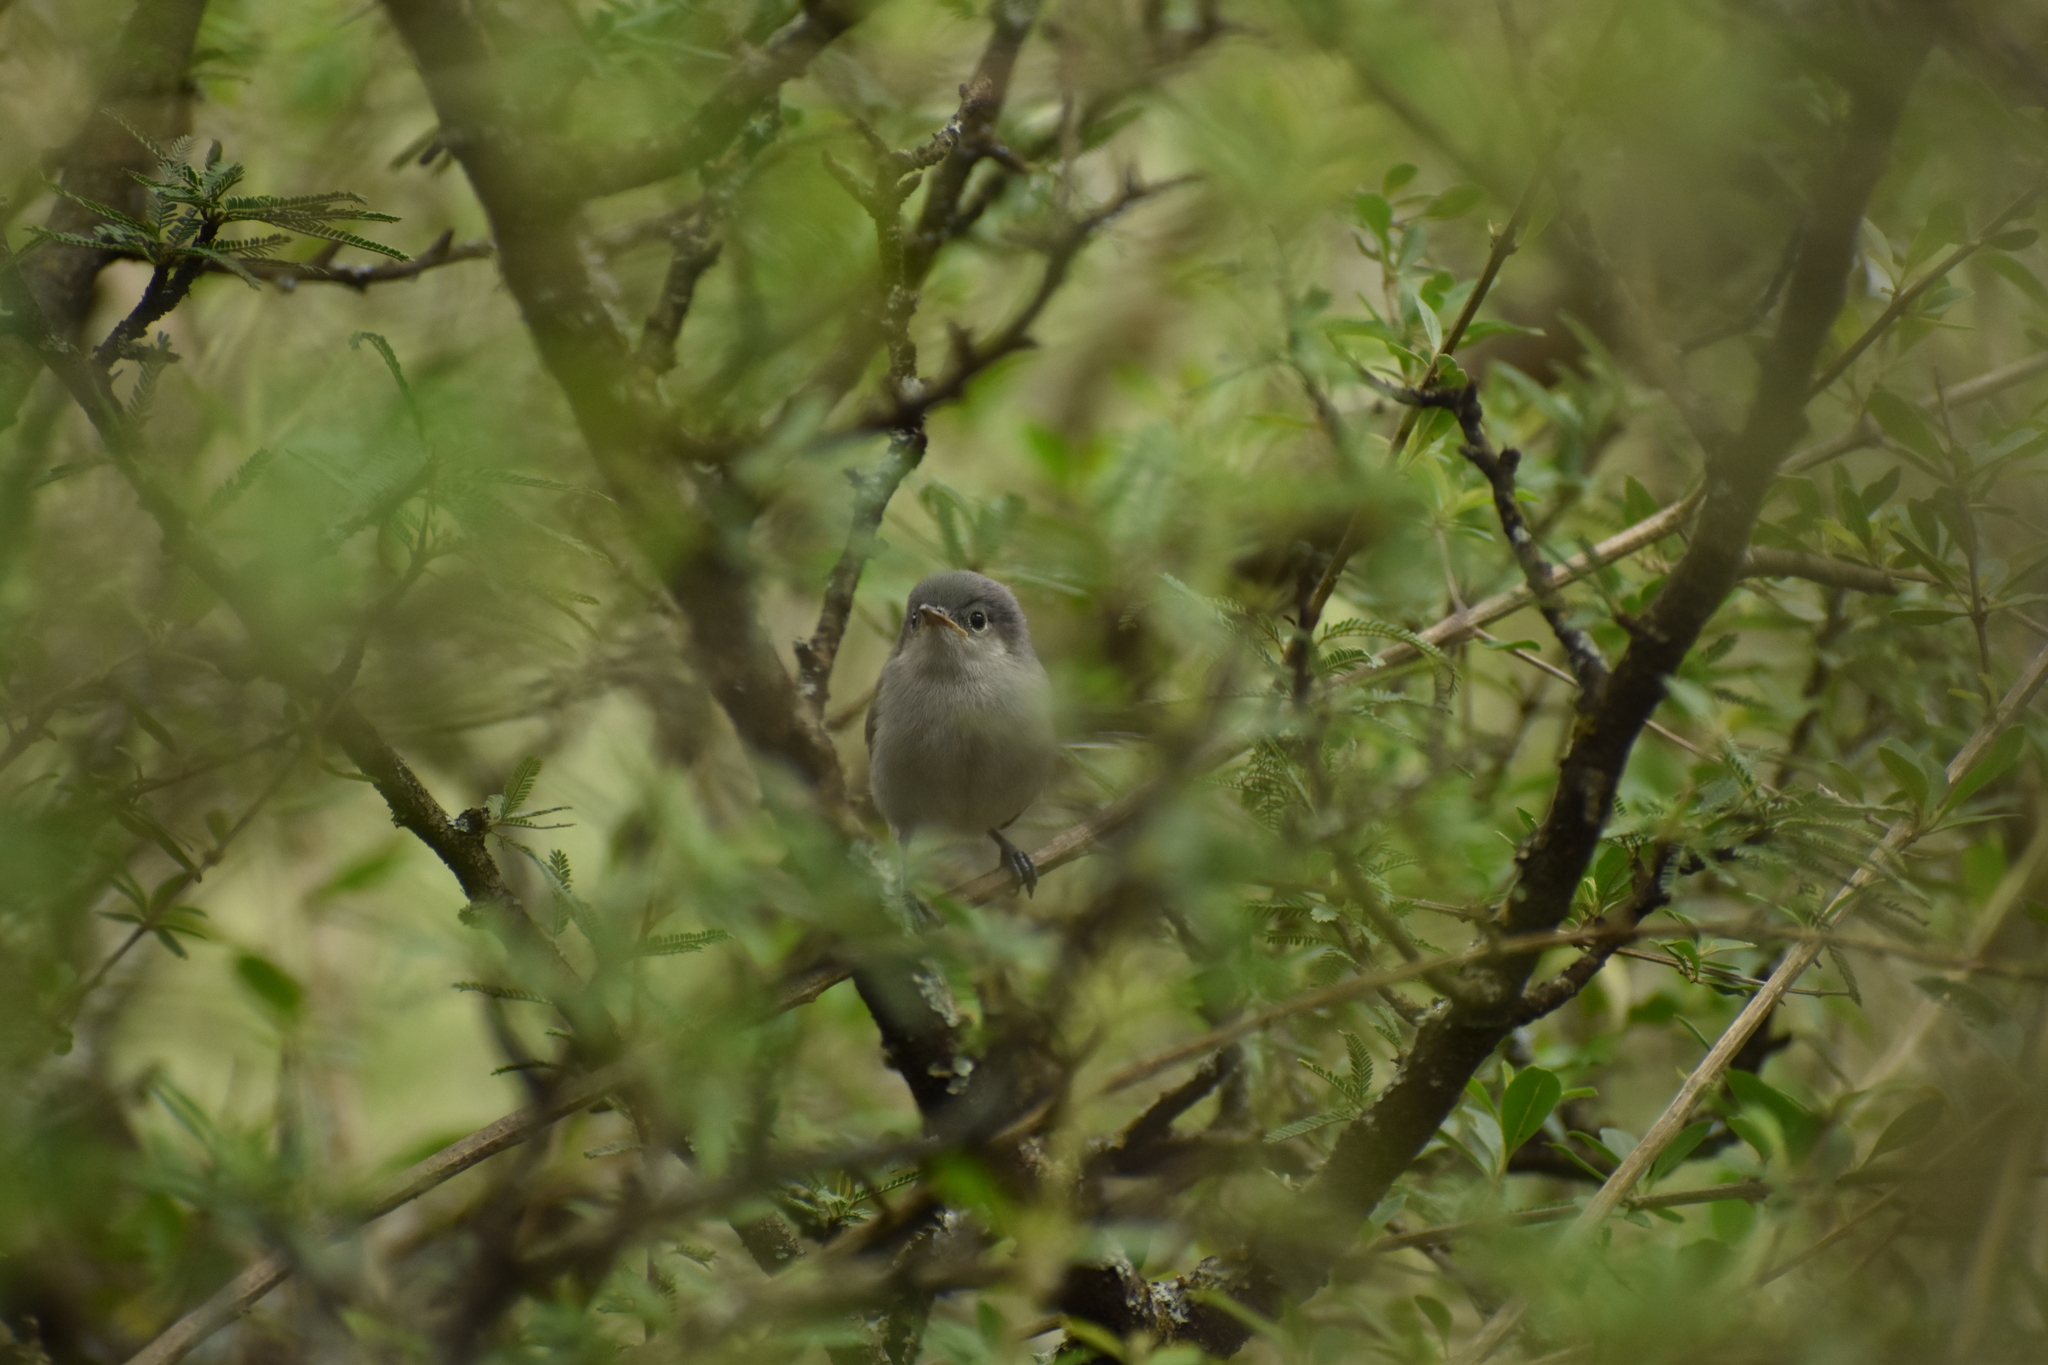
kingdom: Animalia
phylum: Chordata
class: Aves
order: Passeriformes
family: Polioptilidae
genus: Polioptila
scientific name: Polioptila dumicola
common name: Masked gnatcatcher
